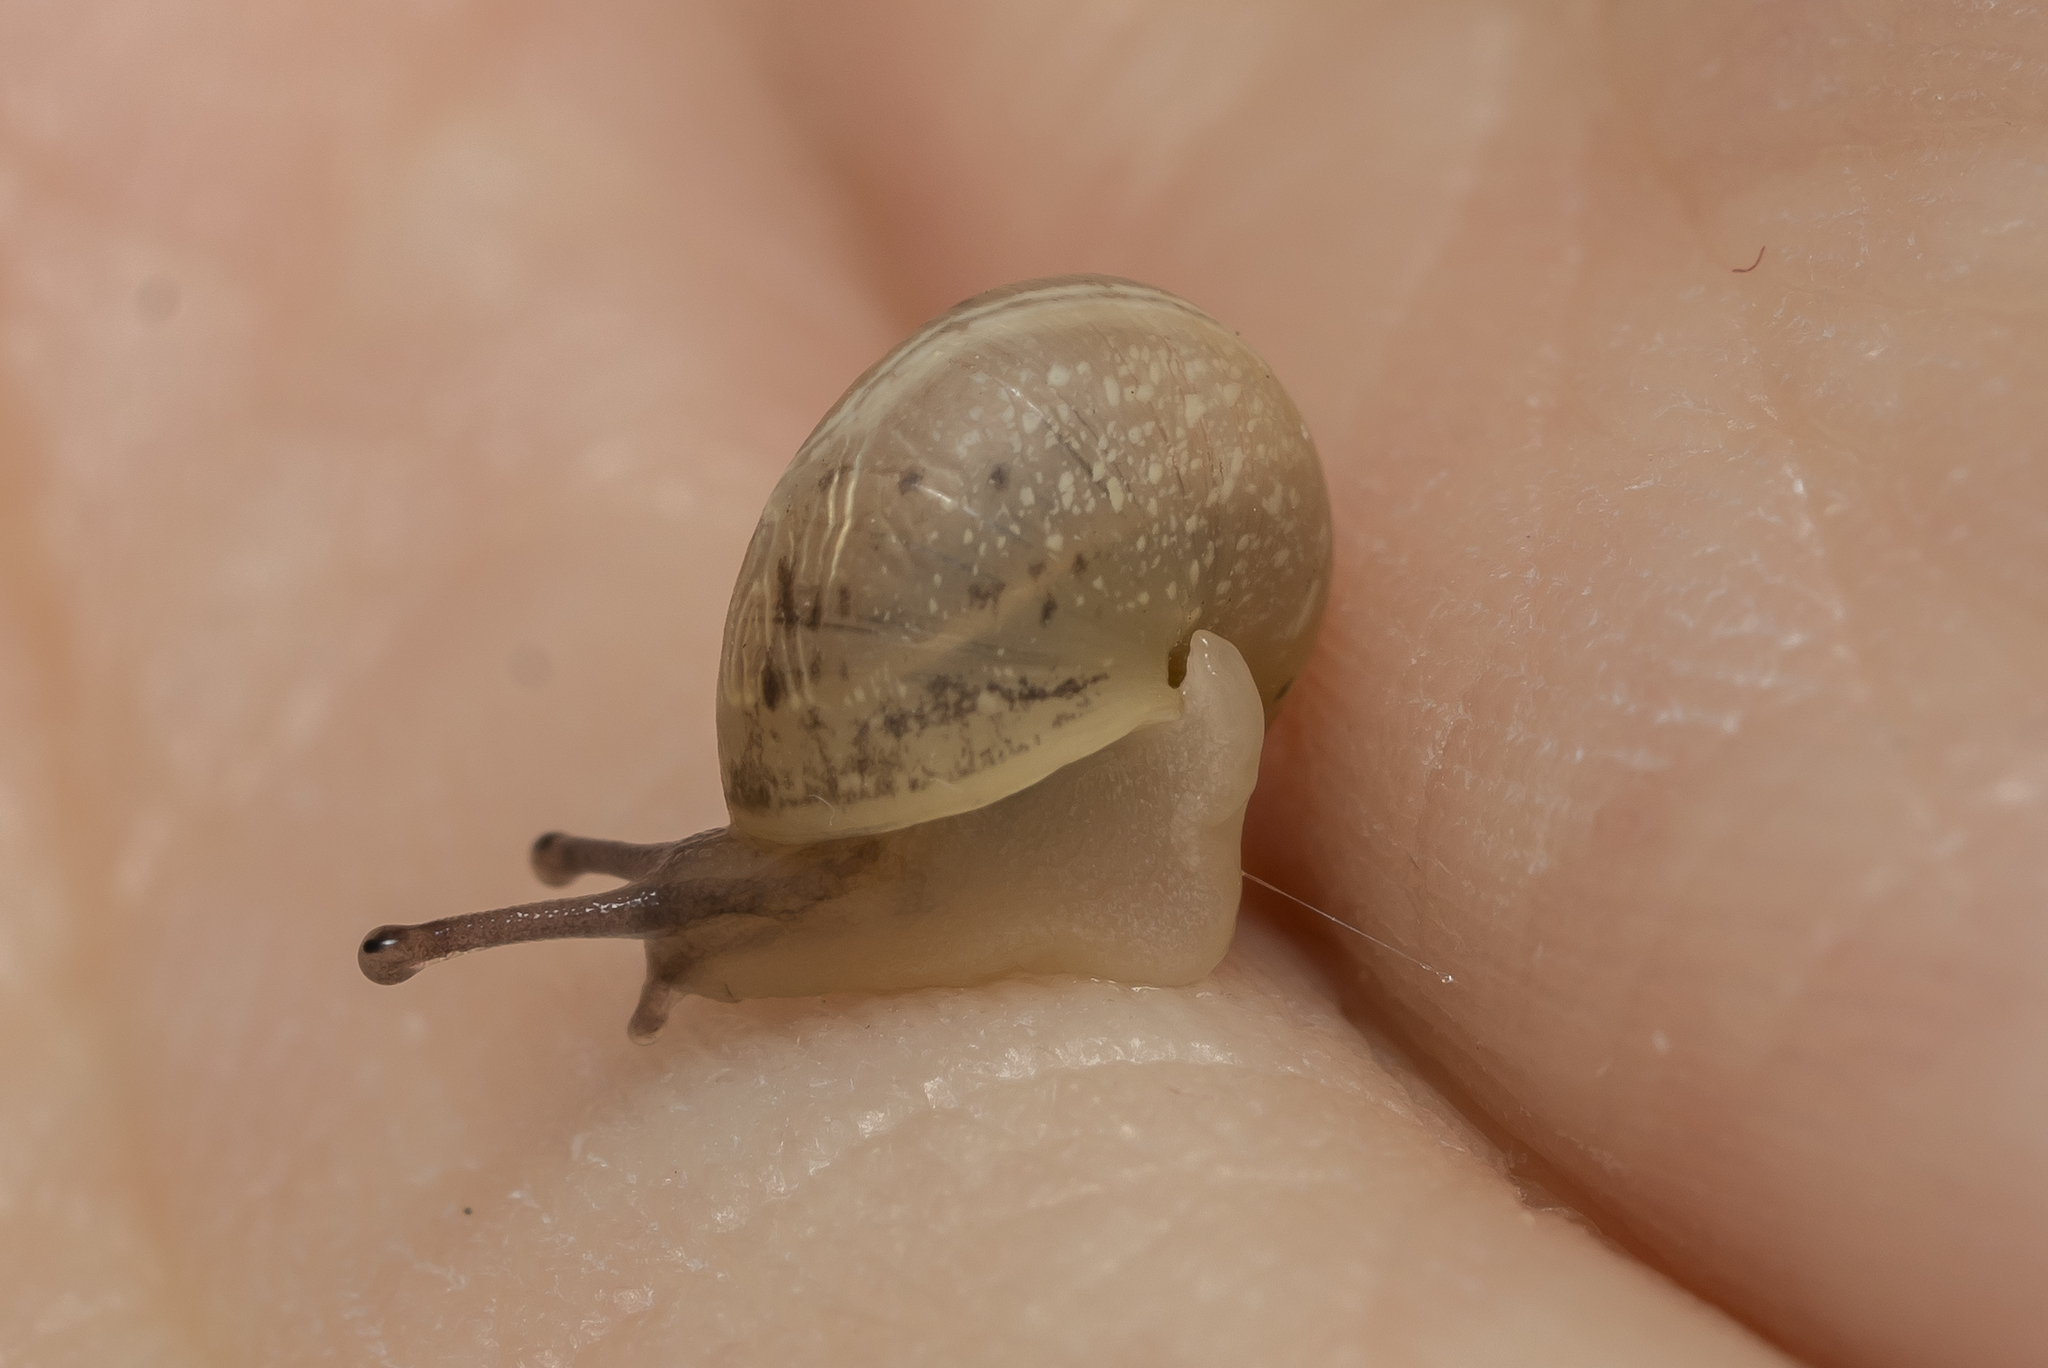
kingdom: Animalia
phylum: Mollusca
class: Gastropoda
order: Stylommatophora
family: Hygromiidae
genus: Monacha
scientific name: Monacha syriaca
